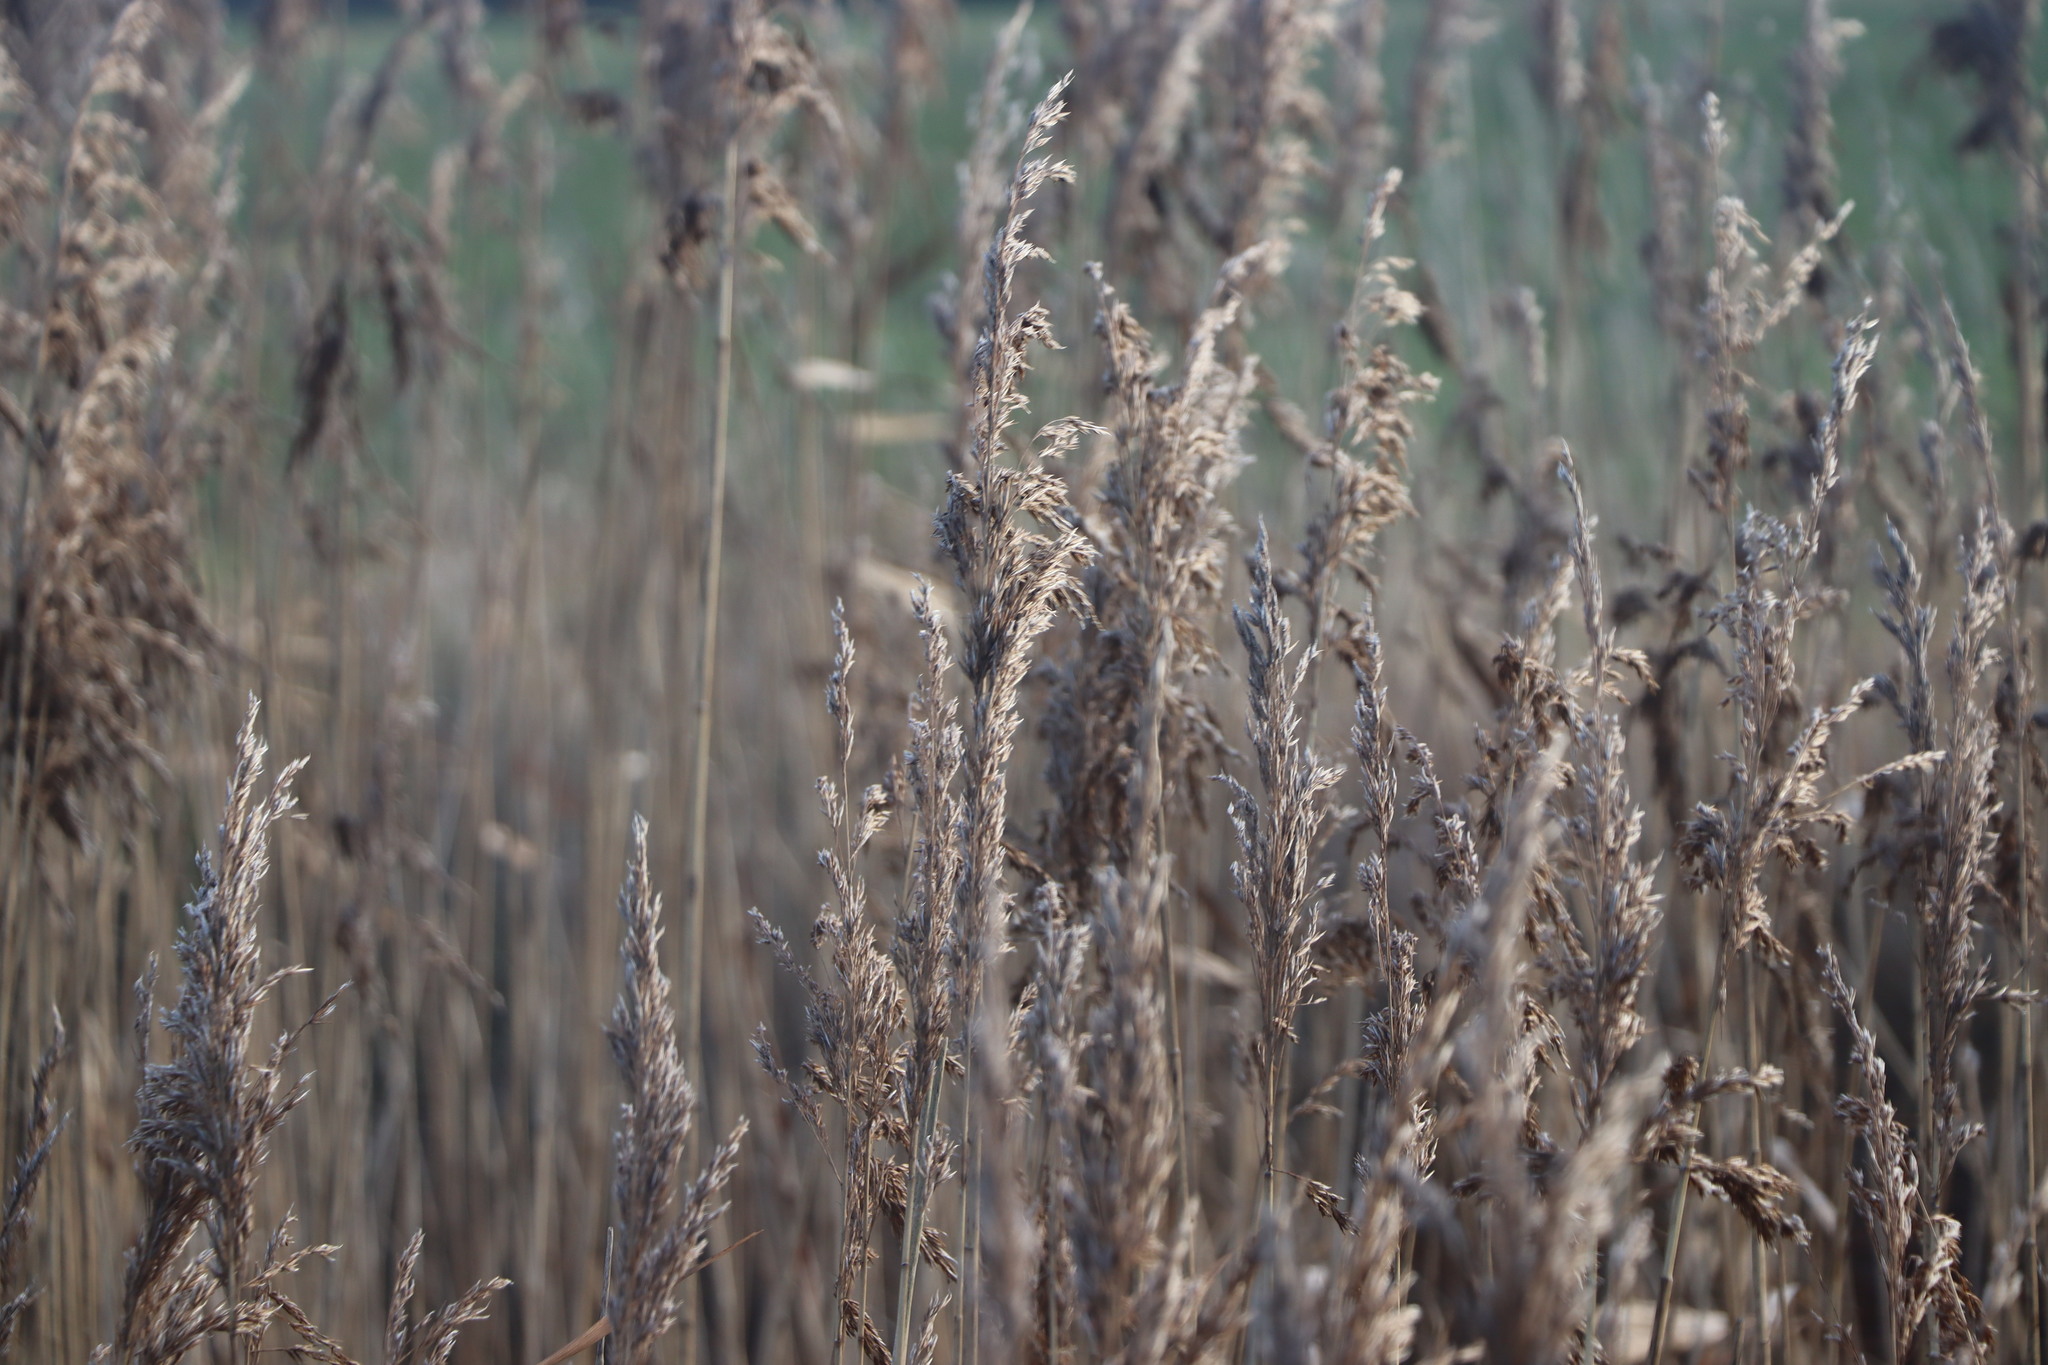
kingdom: Plantae
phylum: Tracheophyta
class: Liliopsida
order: Poales
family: Poaceae
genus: Phragmites
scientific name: Phragmites australis
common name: Common reed
